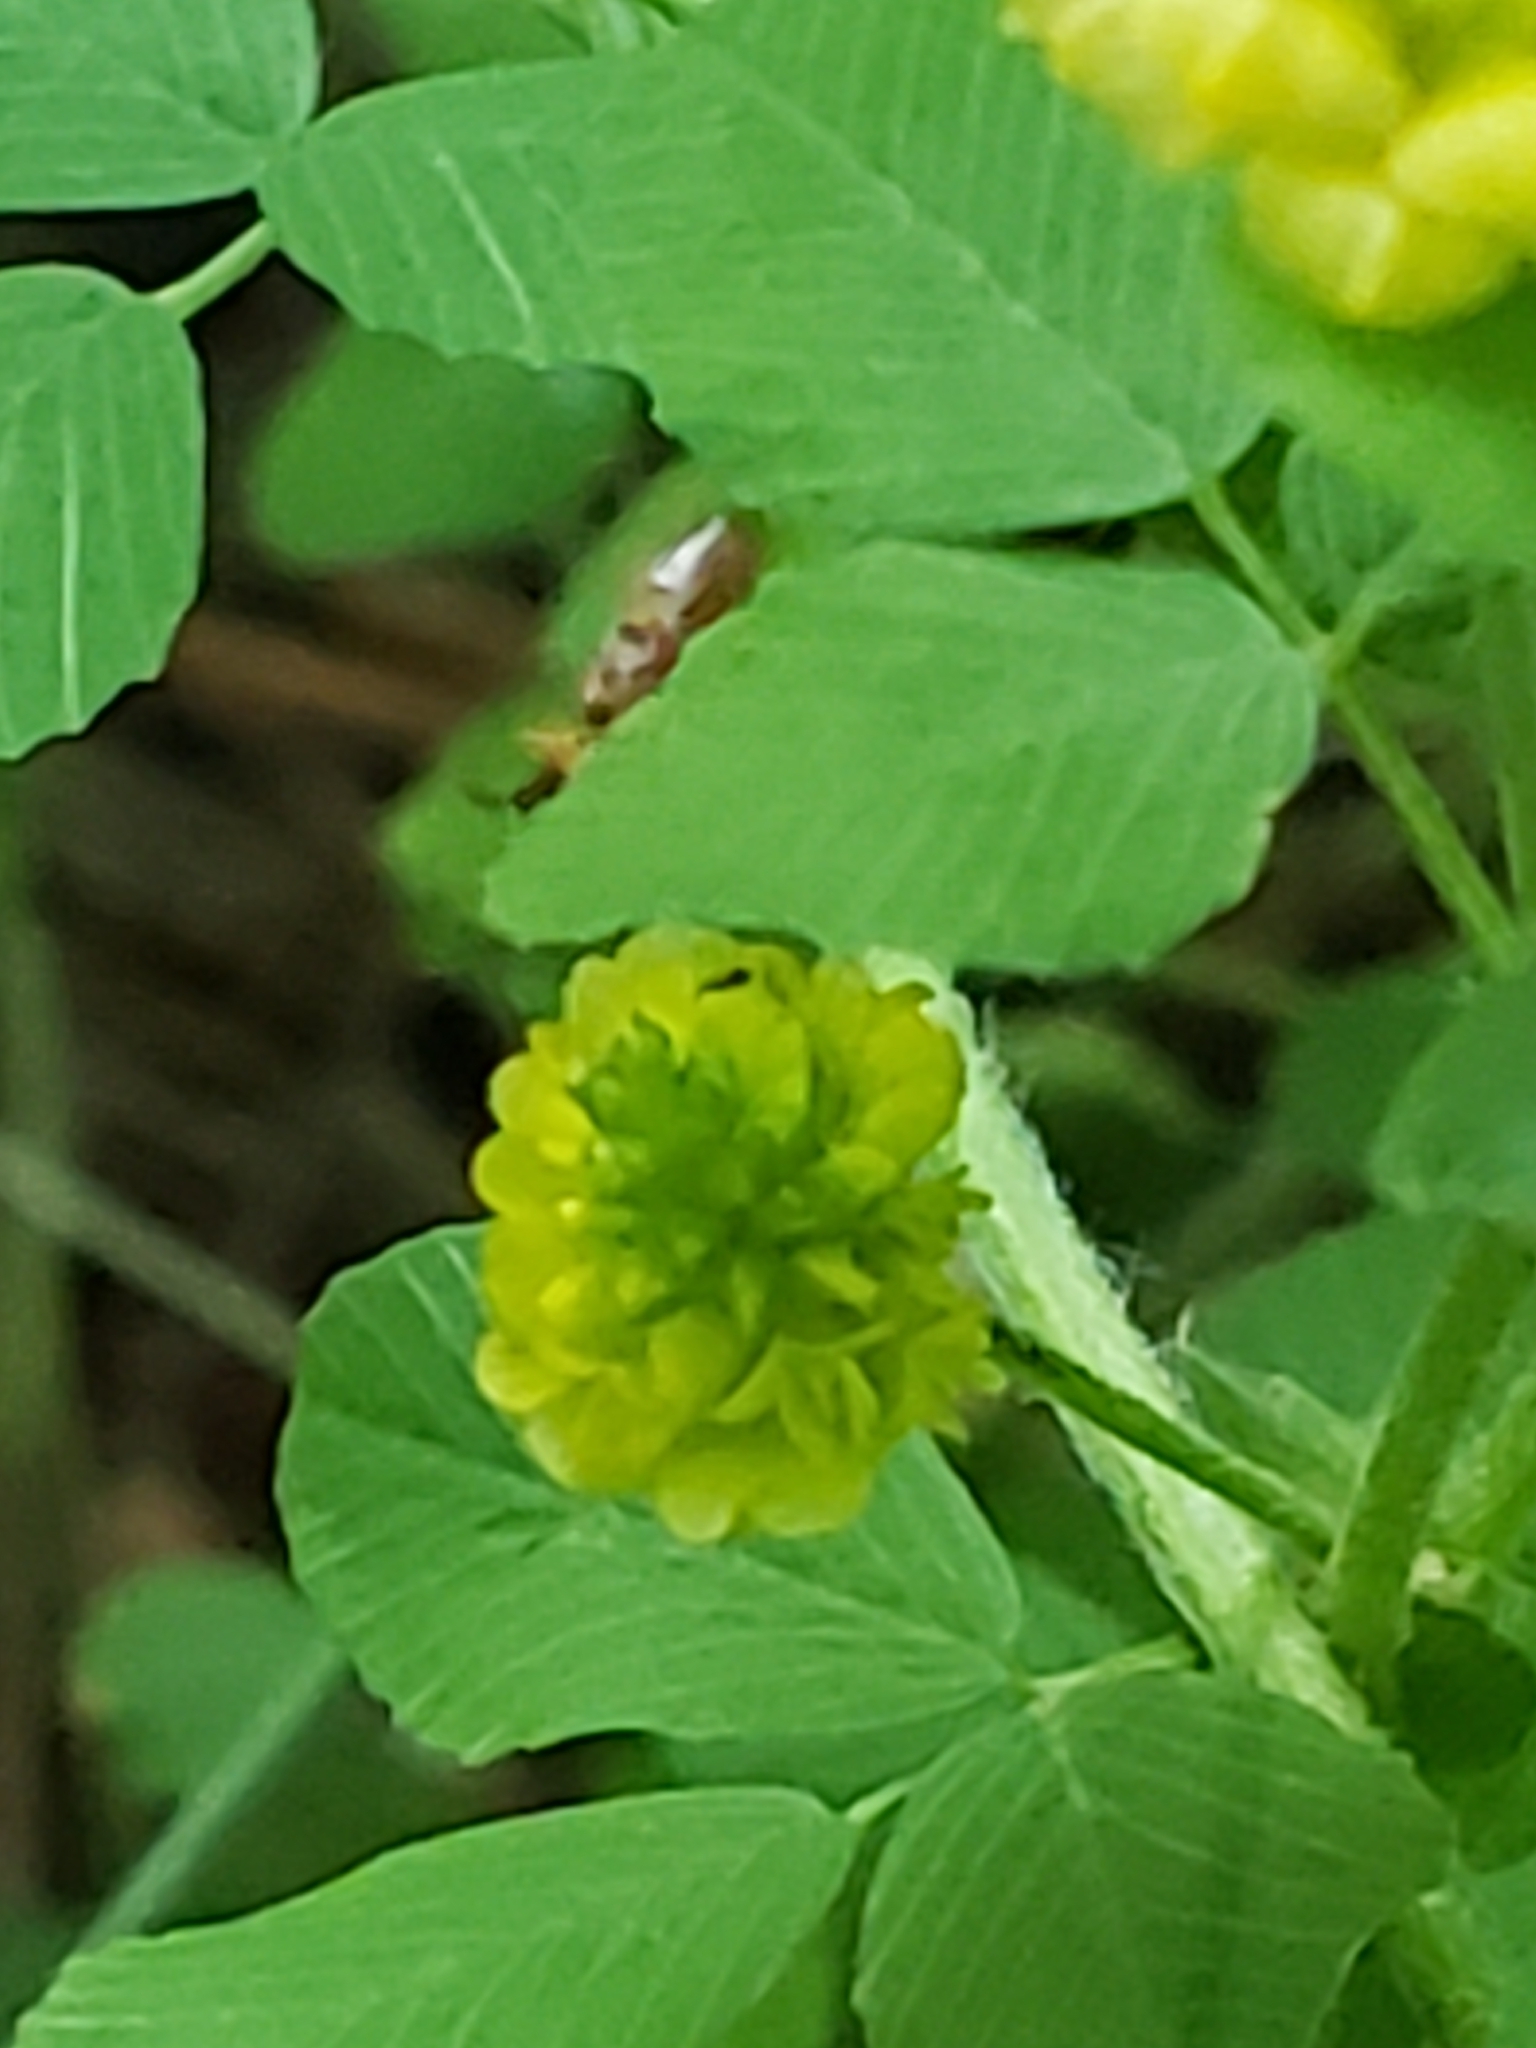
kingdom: Plantae
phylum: Tracheophyta
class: Magnoliopsida
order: Fabales
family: Fabaceae
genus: Trifolium
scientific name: Trifolium campestre
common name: Field clover
